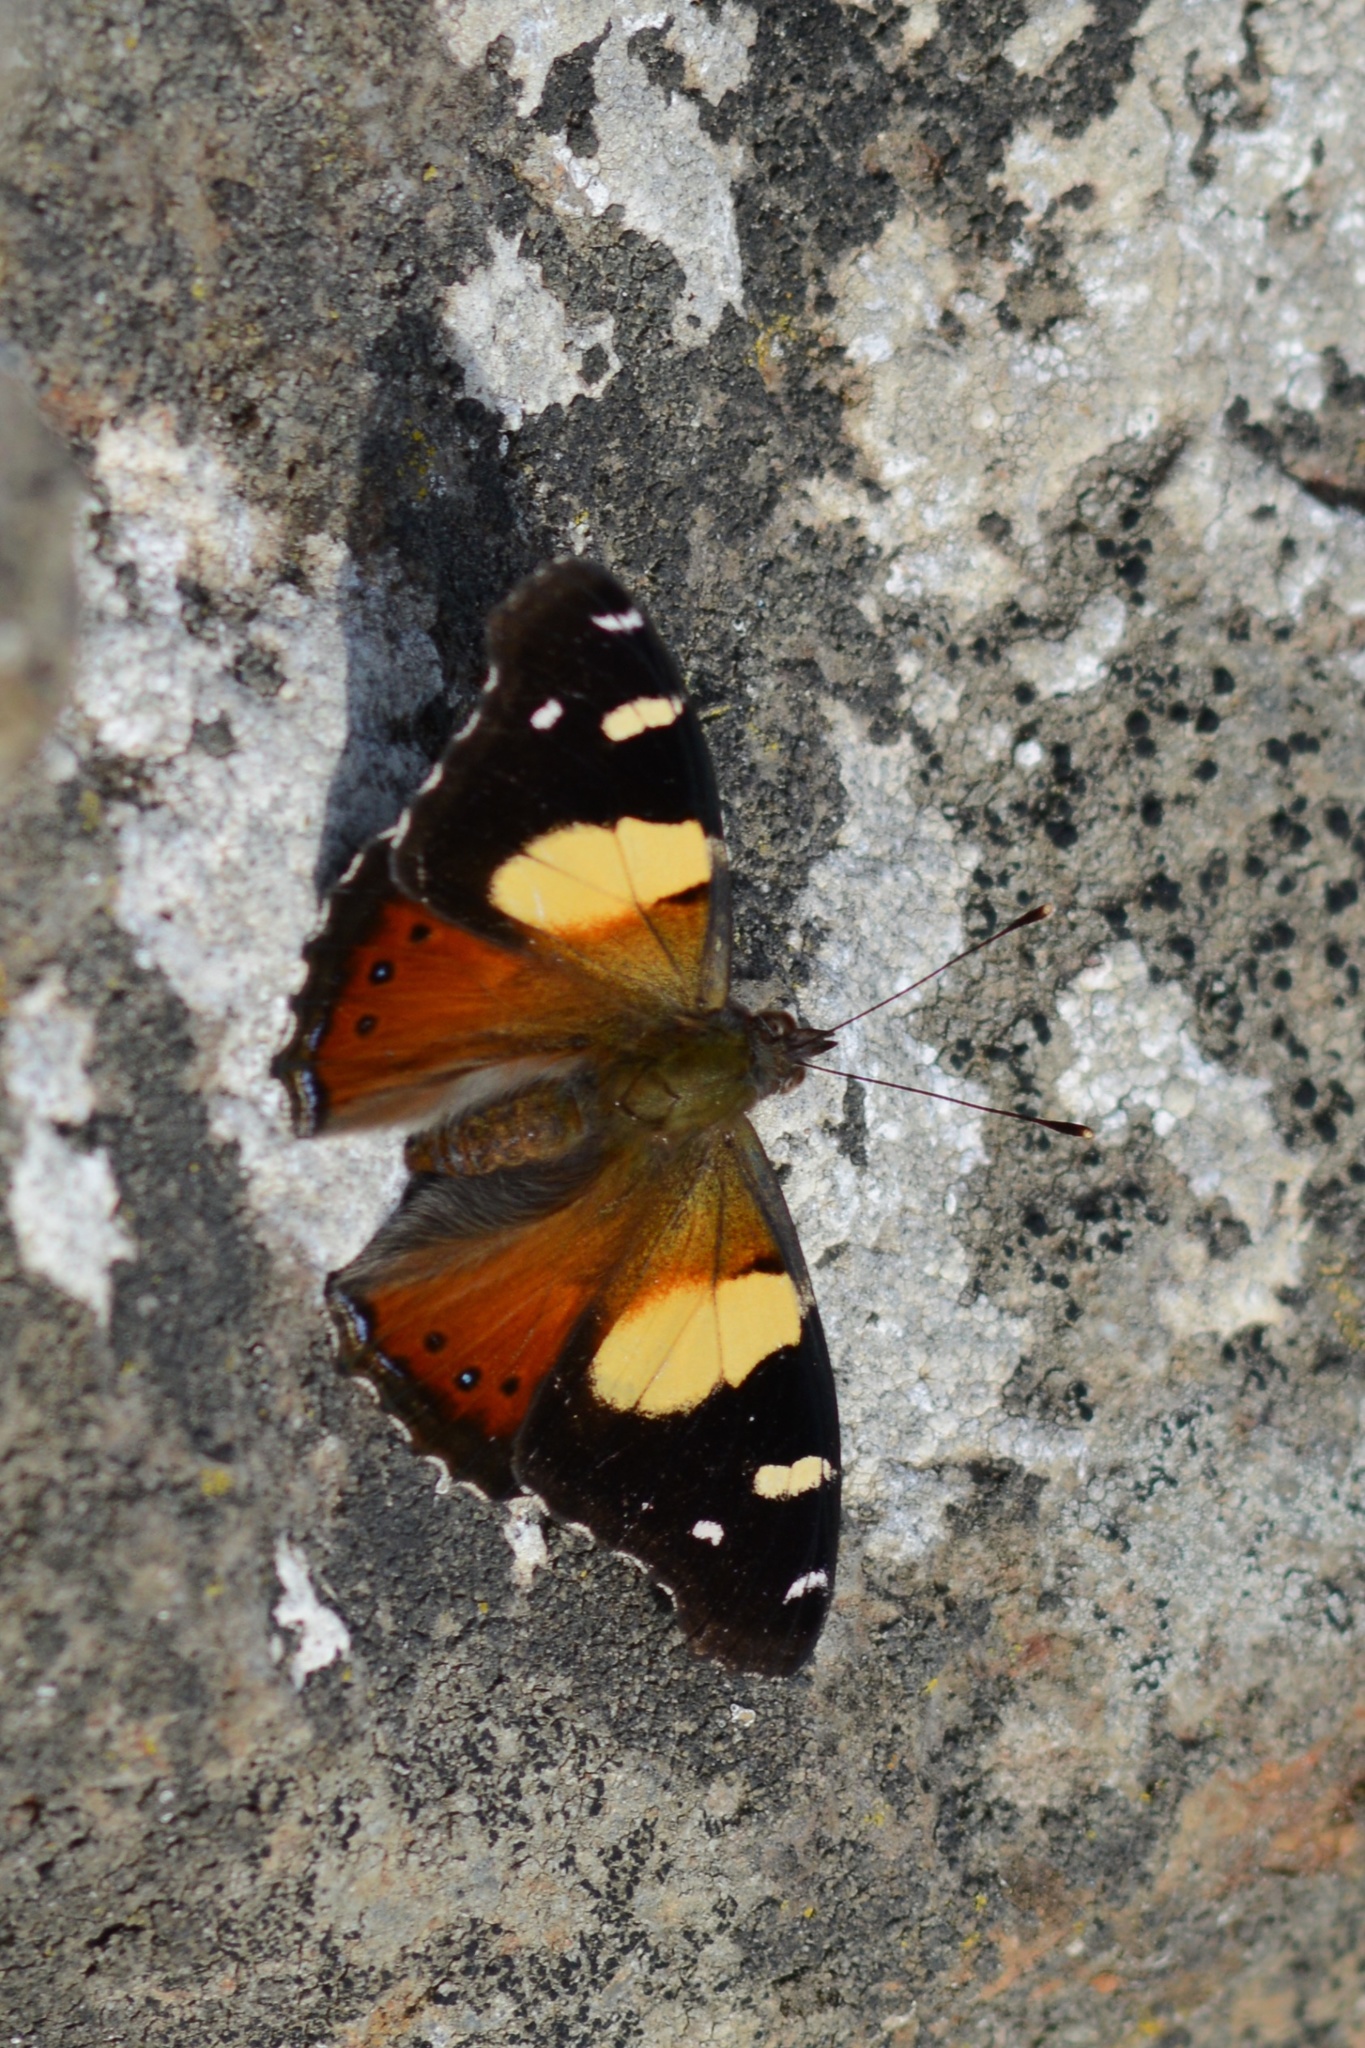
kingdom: Animalia
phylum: Arthropoda
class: Insecta
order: Lepidoptera
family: Nymphalidae
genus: Vanessa
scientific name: Vanessa itea
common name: Yellow admiral
